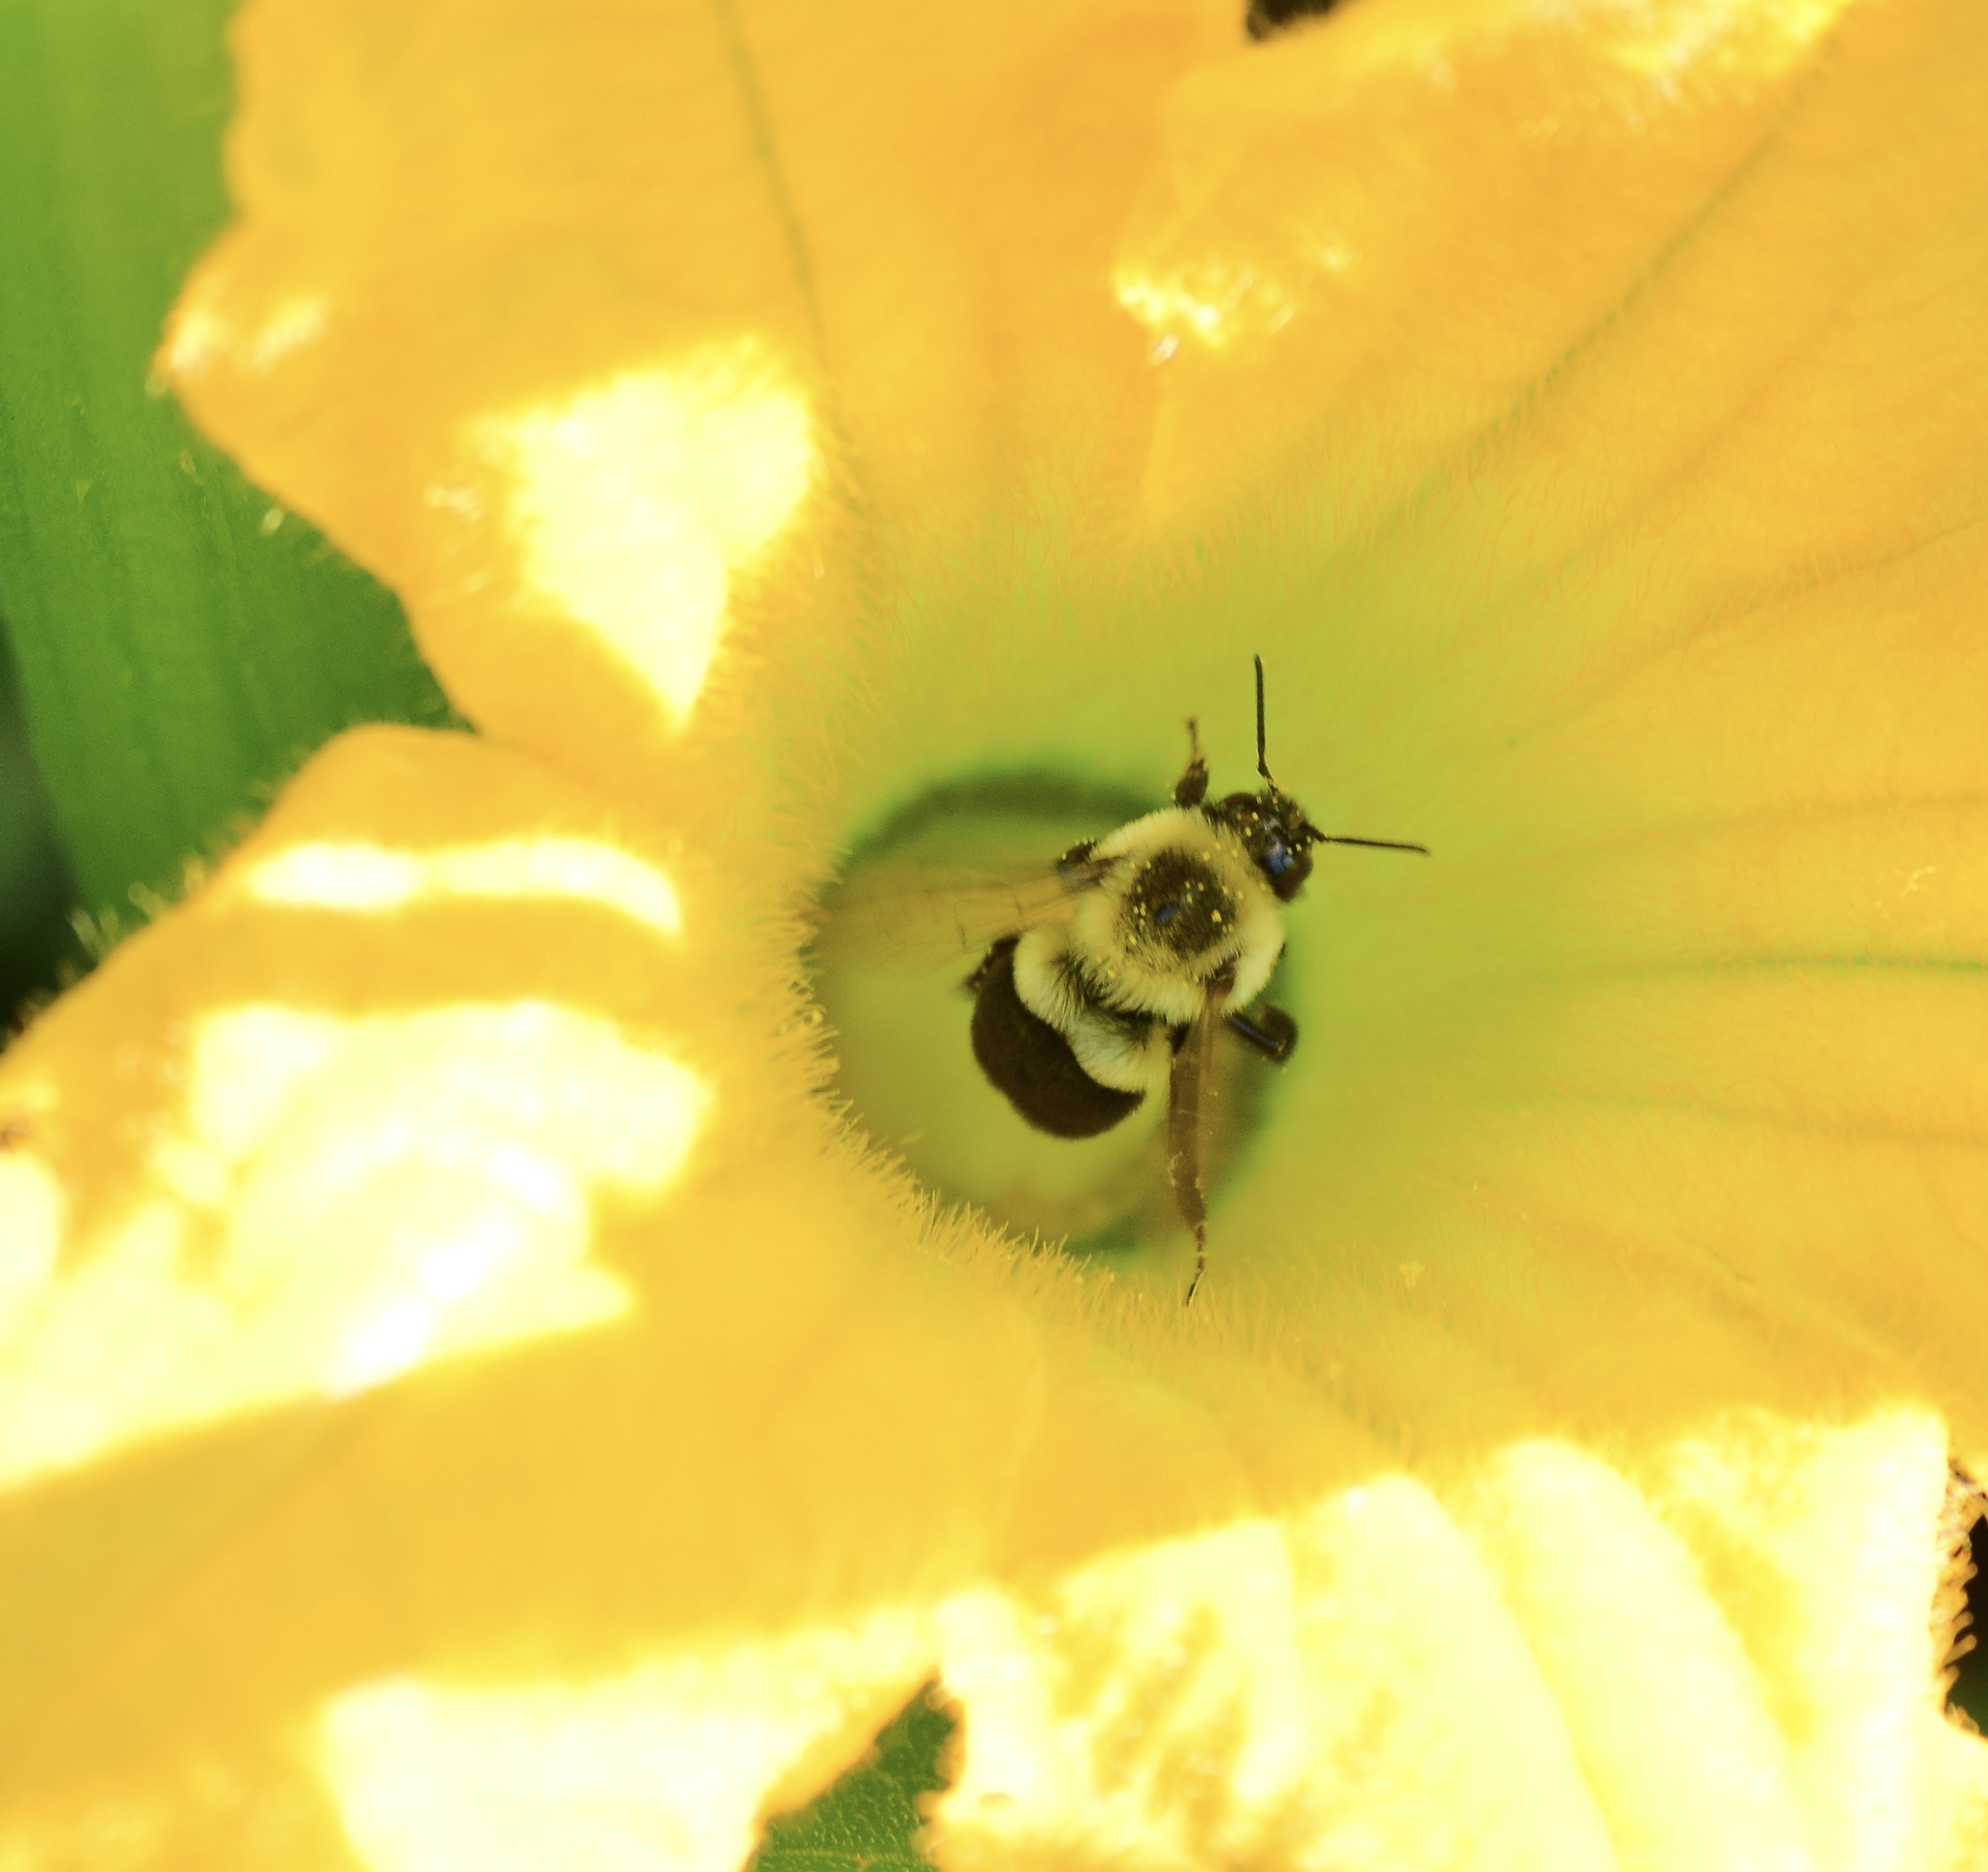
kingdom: Animalia
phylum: Arthropoda
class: Insecta
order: Hymenoptera
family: Apidae
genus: Bombus
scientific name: Bombus impatiens
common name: Common eastern bumble bee
